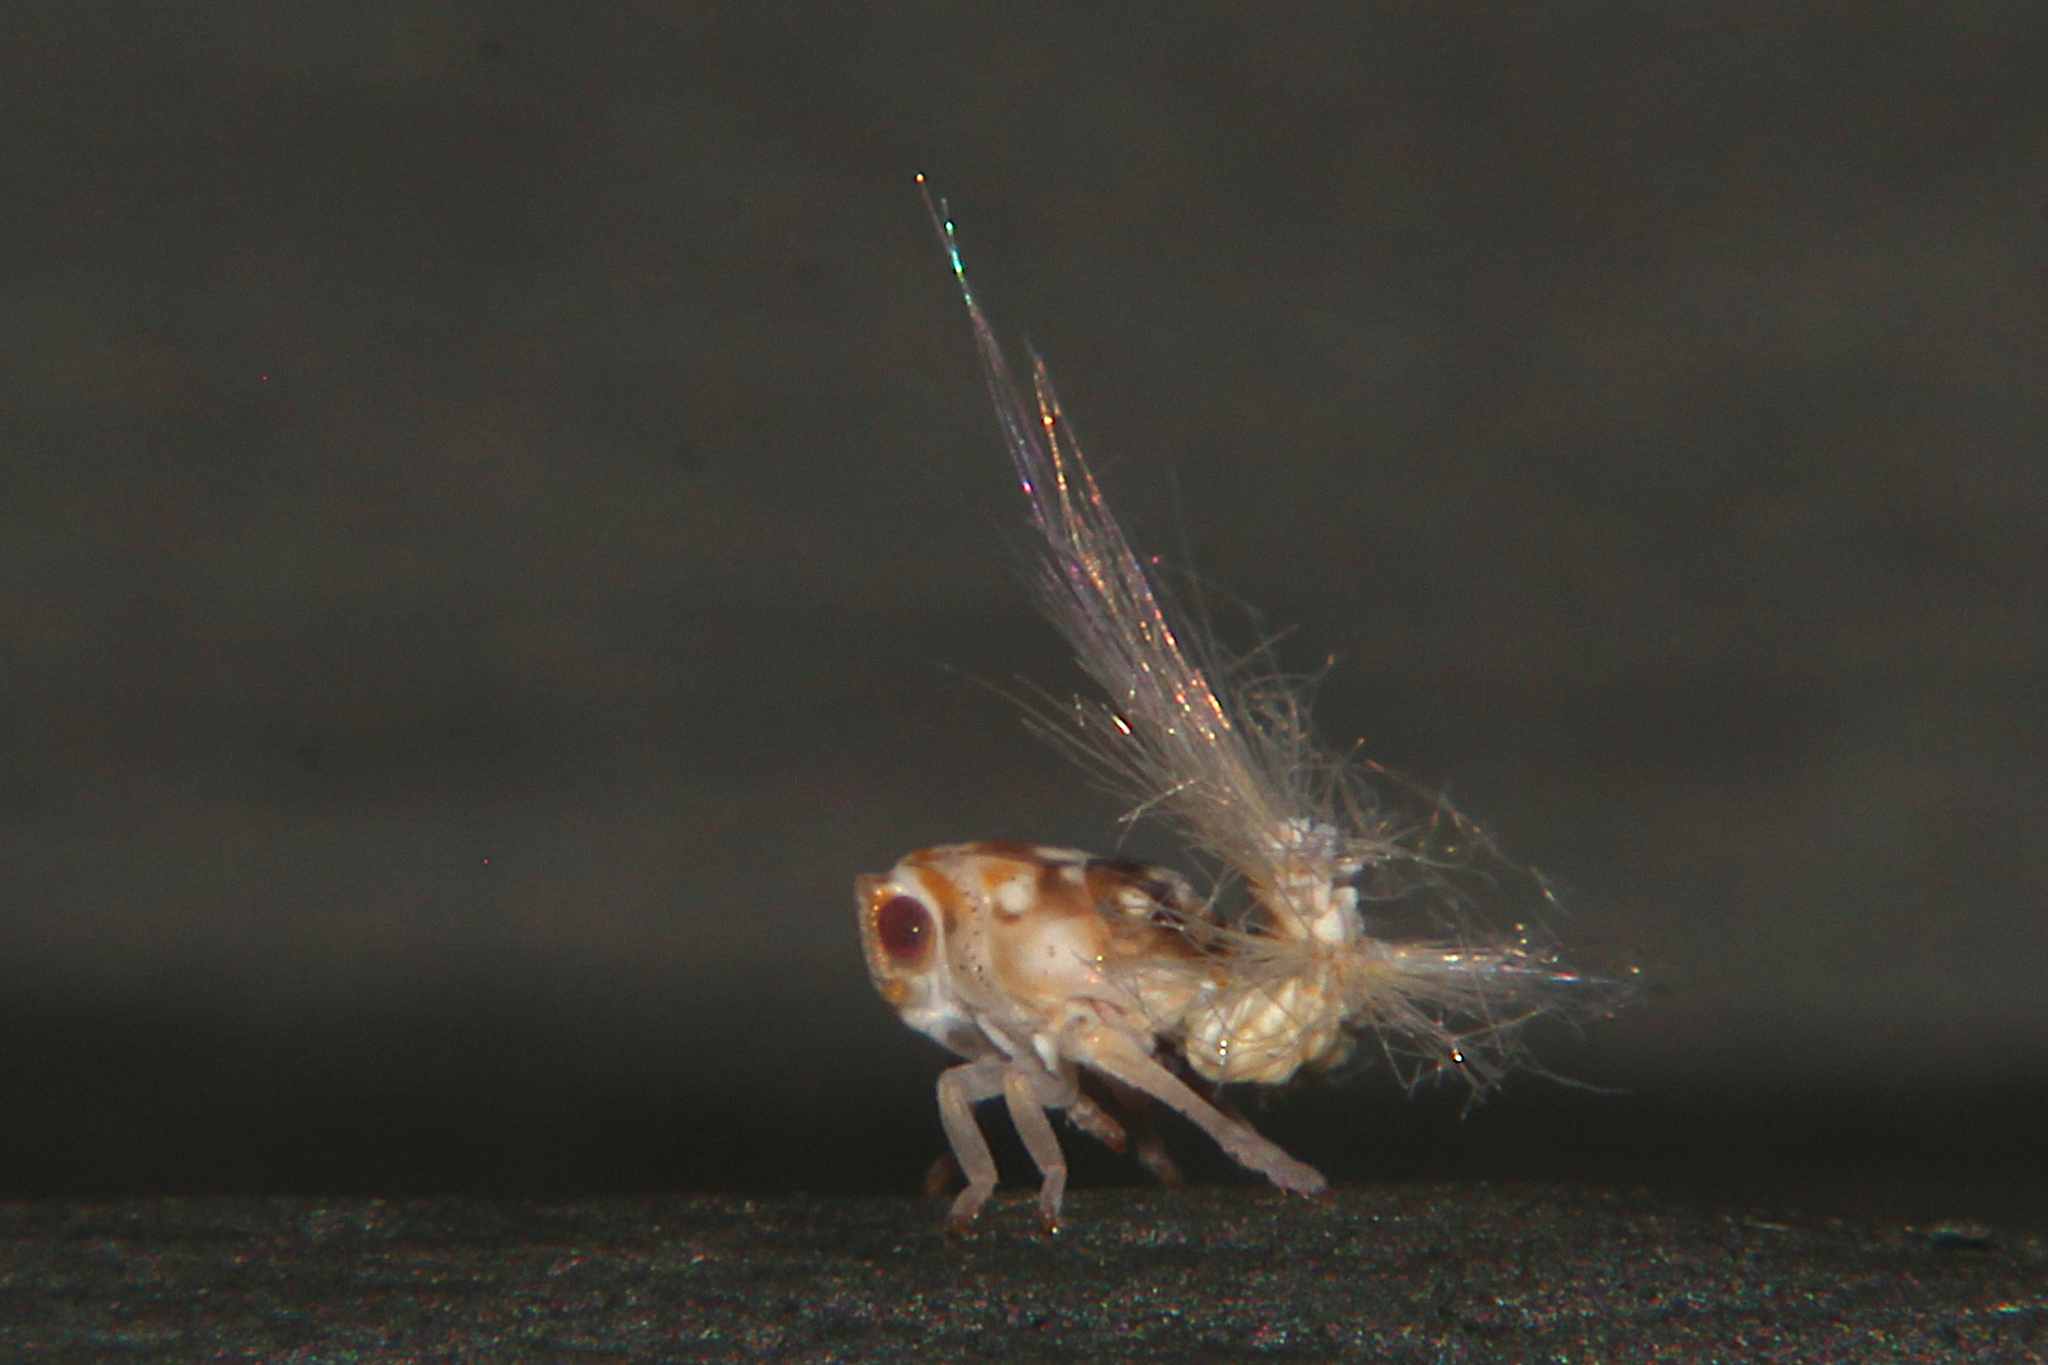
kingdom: Animalia
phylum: Arthropoda
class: Insecta
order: Hemiptera
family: Ricaniidae
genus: Scolypopa
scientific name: Scolypopa australis
